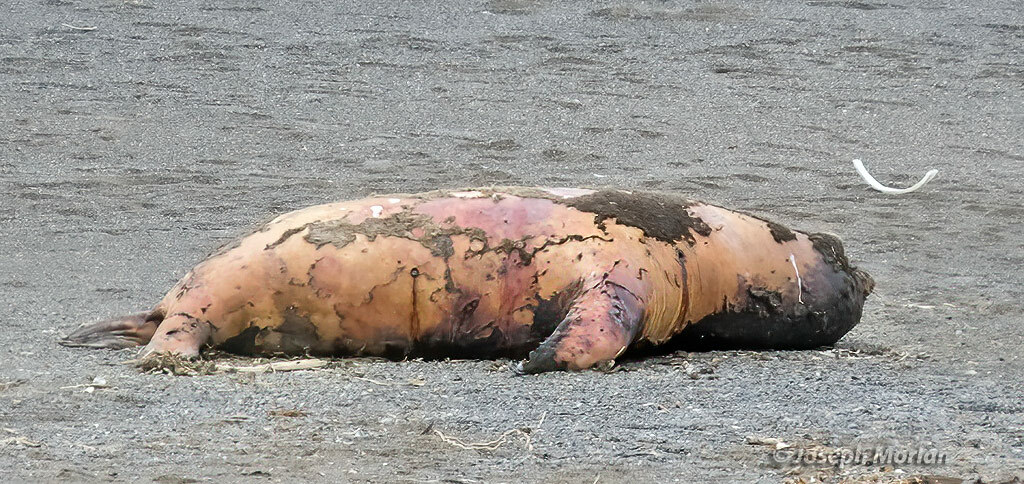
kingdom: Animalia
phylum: Chordata
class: Mammalia
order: Carnivora
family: Otariidae
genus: Zalophus
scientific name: Zalophus californianus
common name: California sea lion
